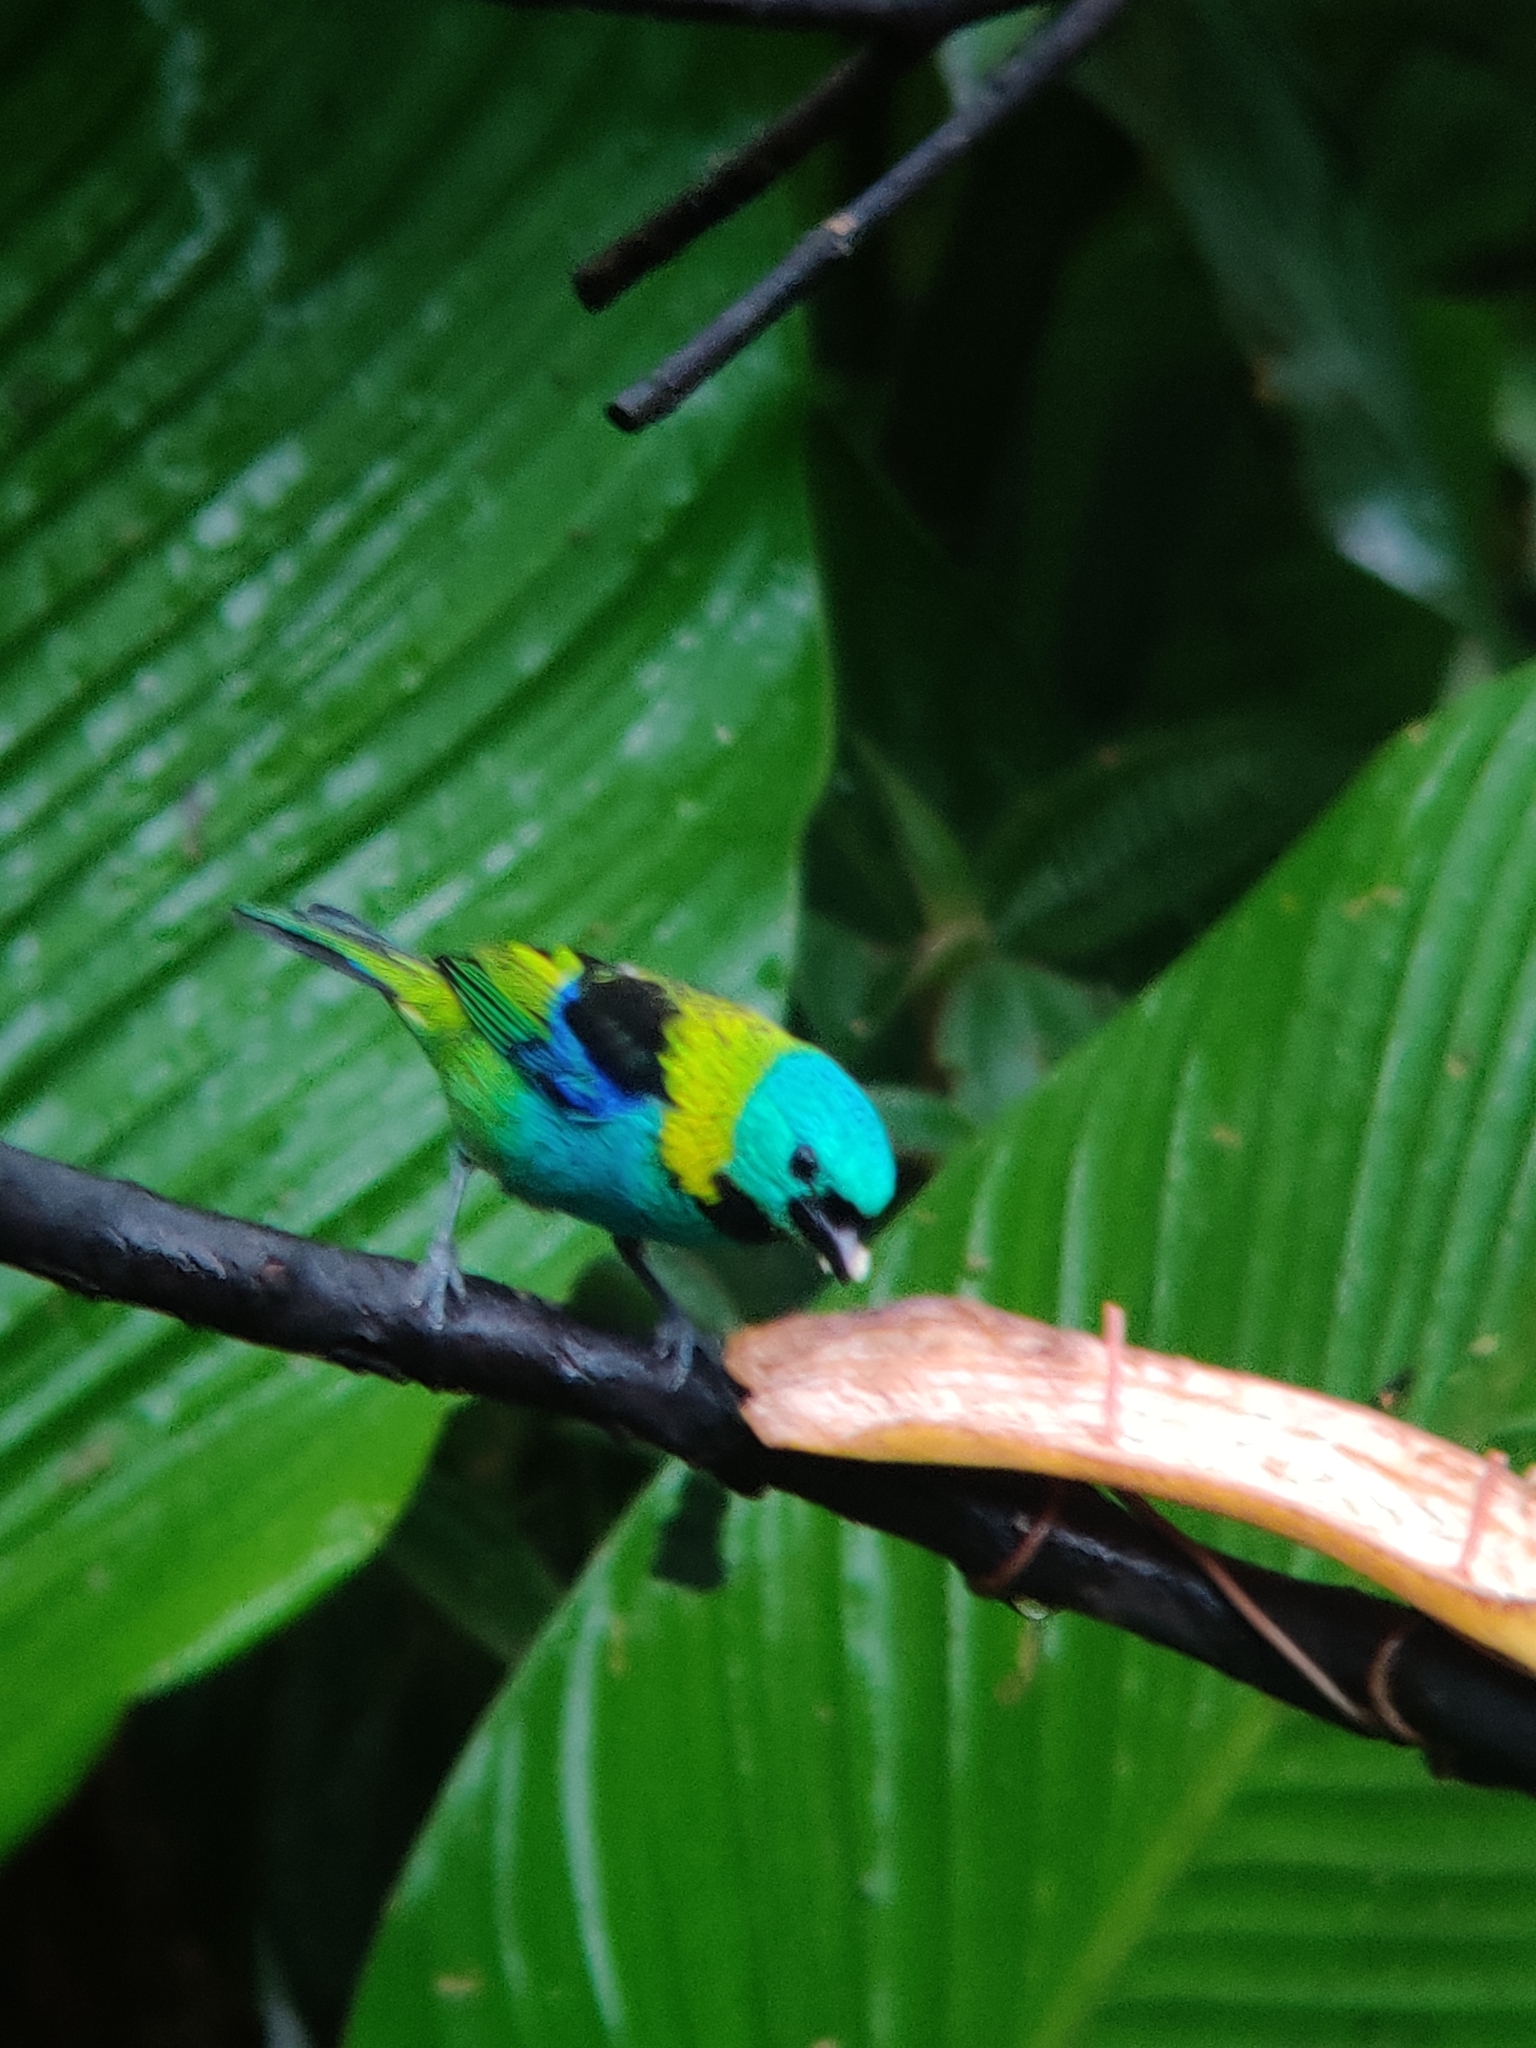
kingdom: Animalia
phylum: Chordata
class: Aves
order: Passeriformes
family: Thraupidae
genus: Tangara
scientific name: Tangara seledon
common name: Green-headed tanager
